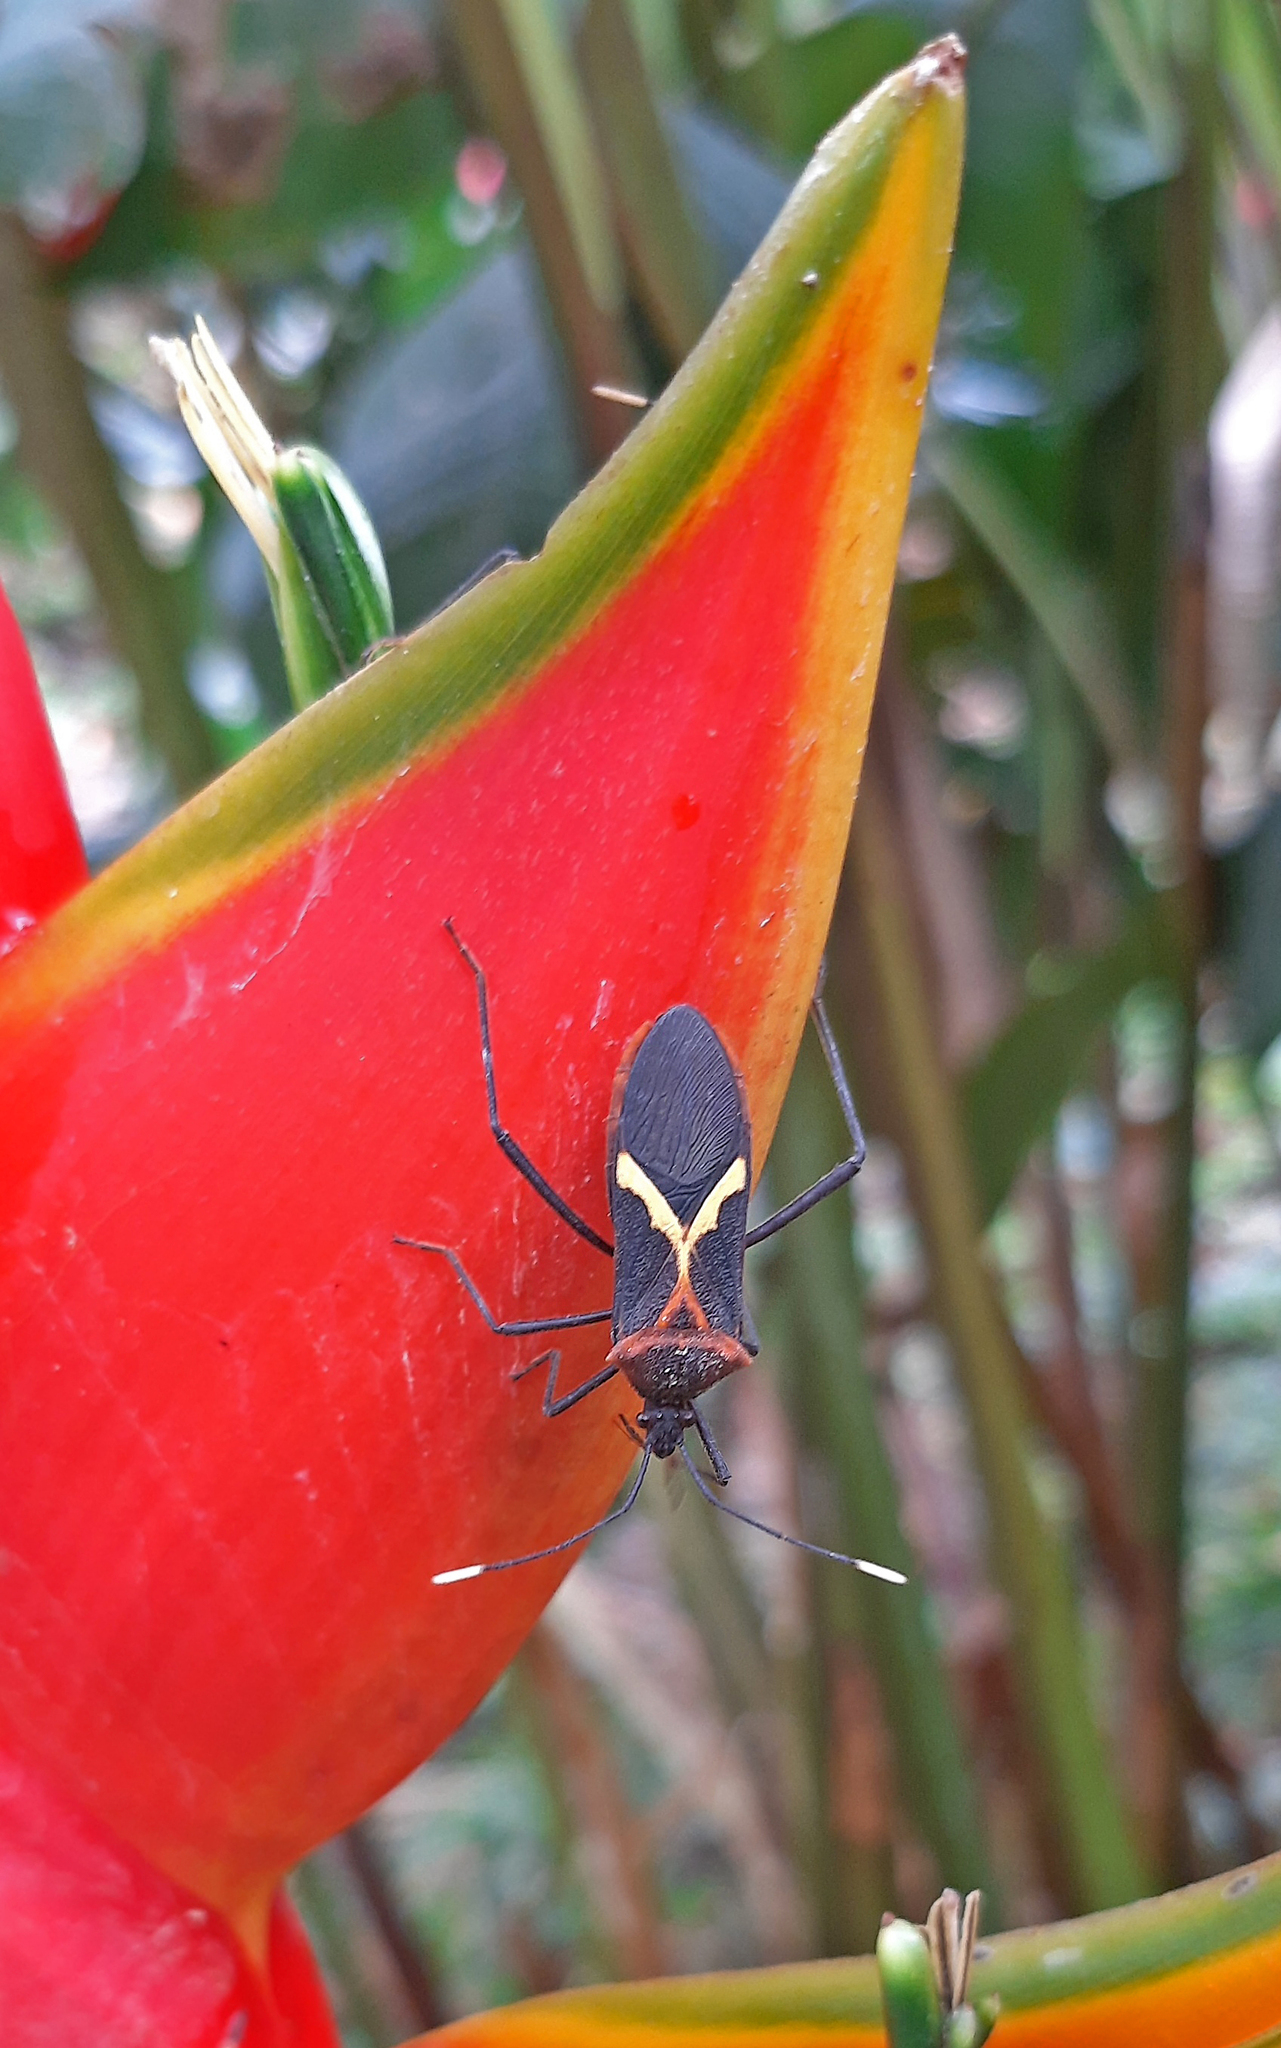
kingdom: Animalia
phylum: Arthropoda
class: Insecta
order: Hemiptera
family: Coreidae
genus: Leptoscelis
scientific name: Leptoscelis tricolor
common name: Heliconia bug
